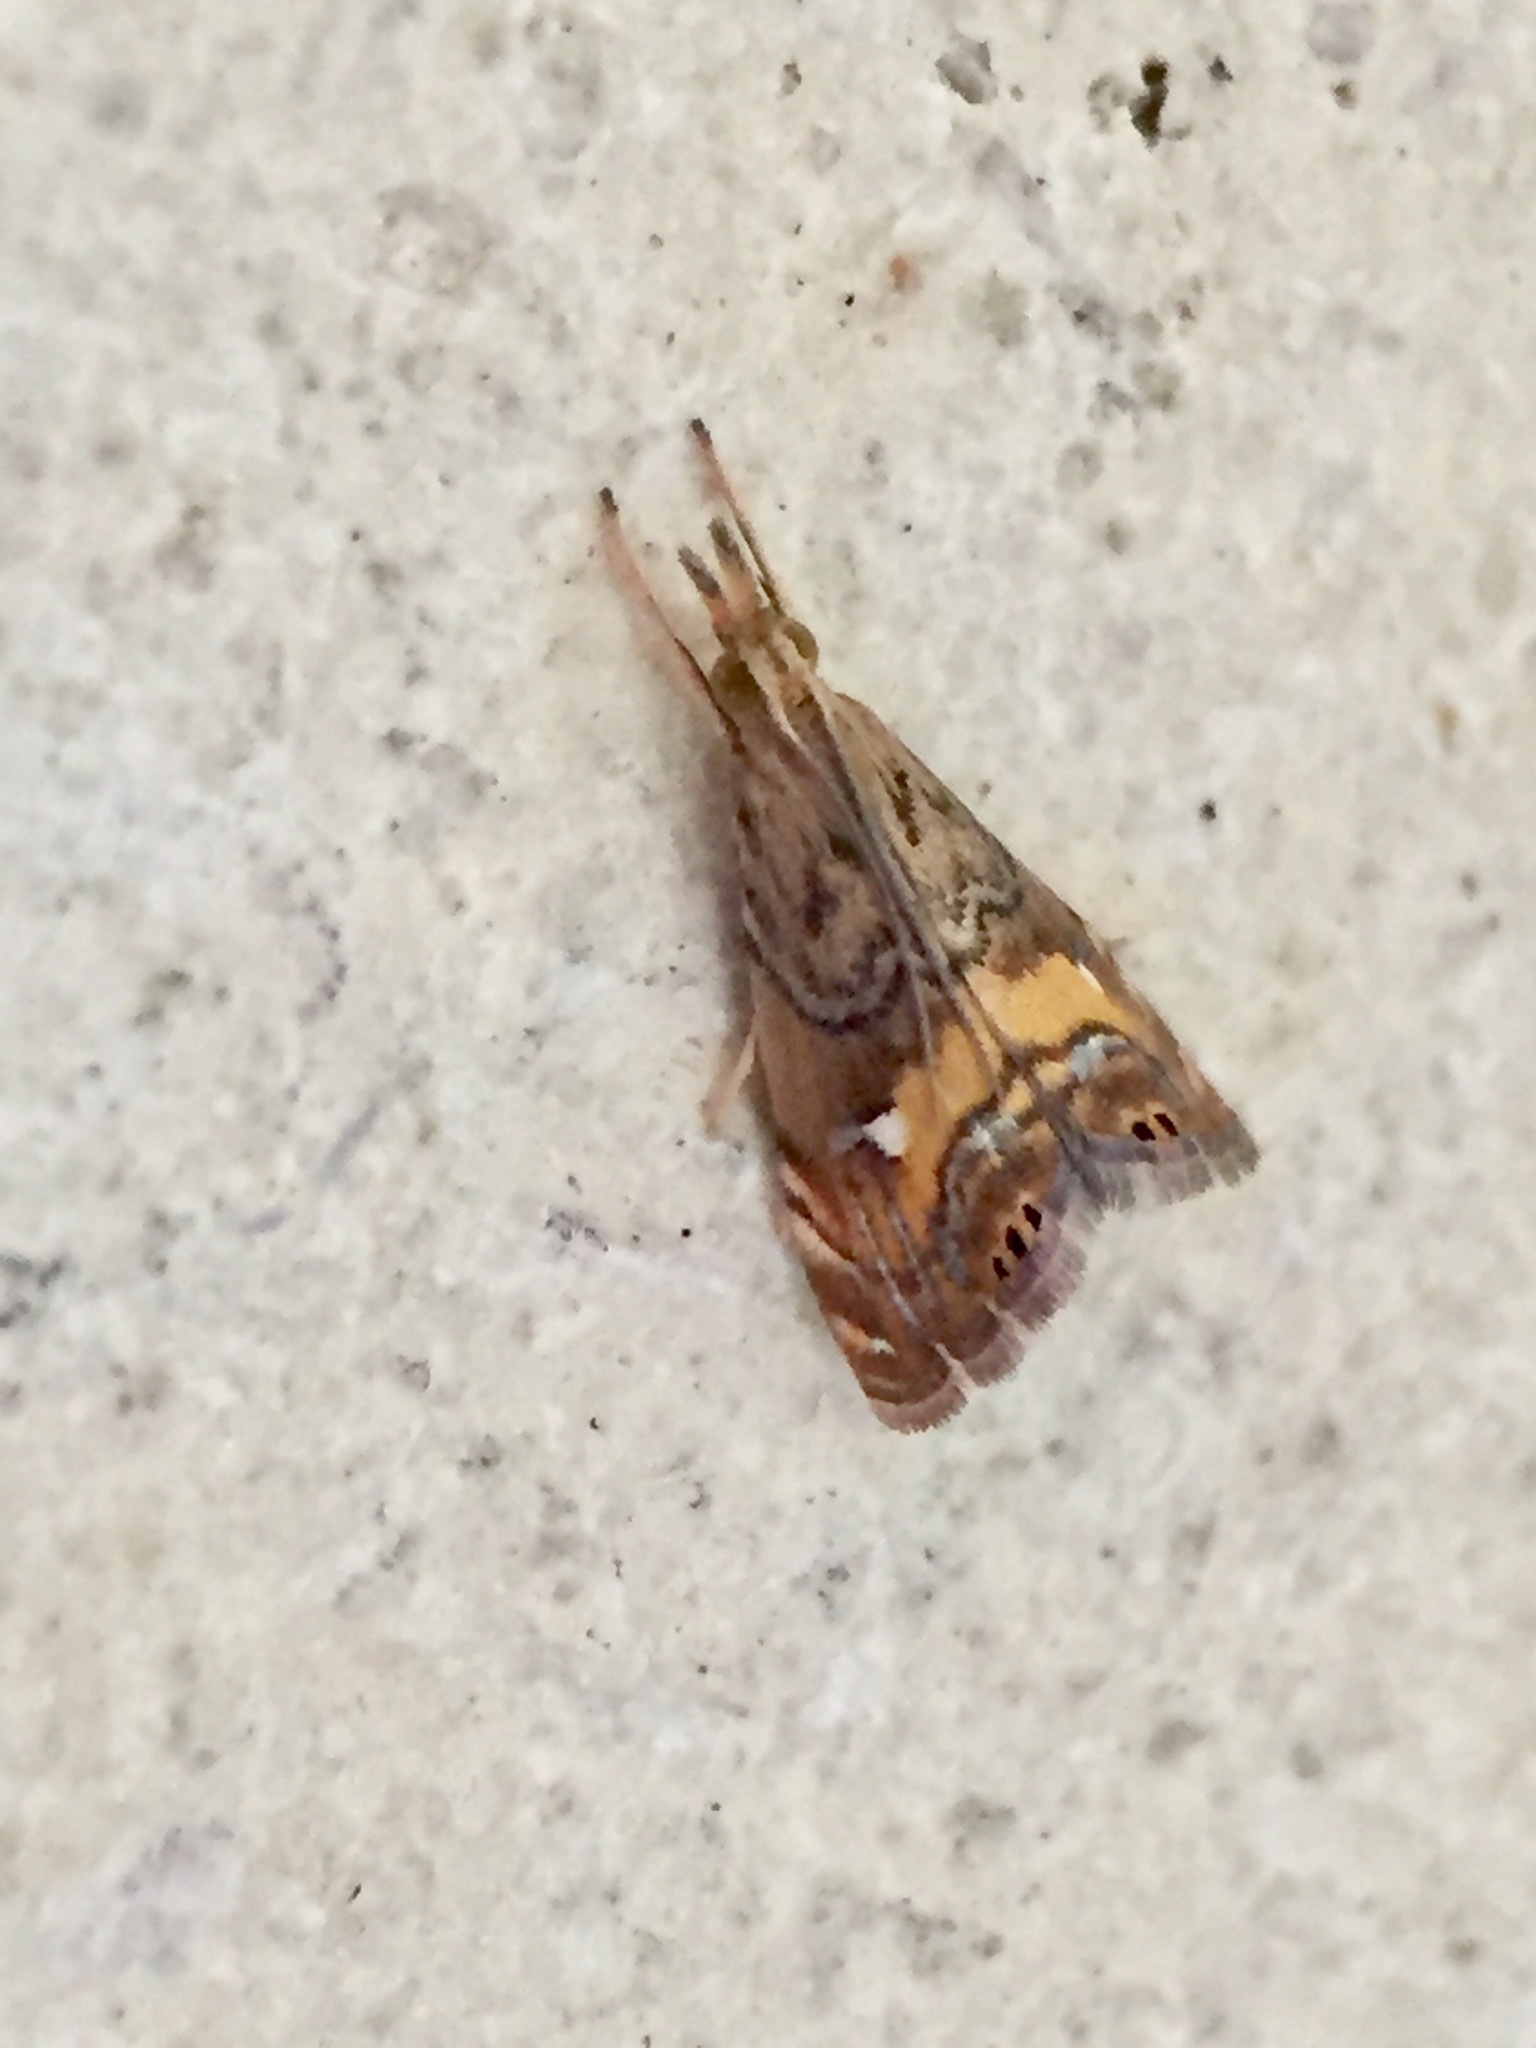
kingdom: Animalia
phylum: Arthropoda
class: Insecta
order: Lepidoptera
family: Crambidae
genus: Glaucocharis
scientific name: Glaucocharis chrysochyta
